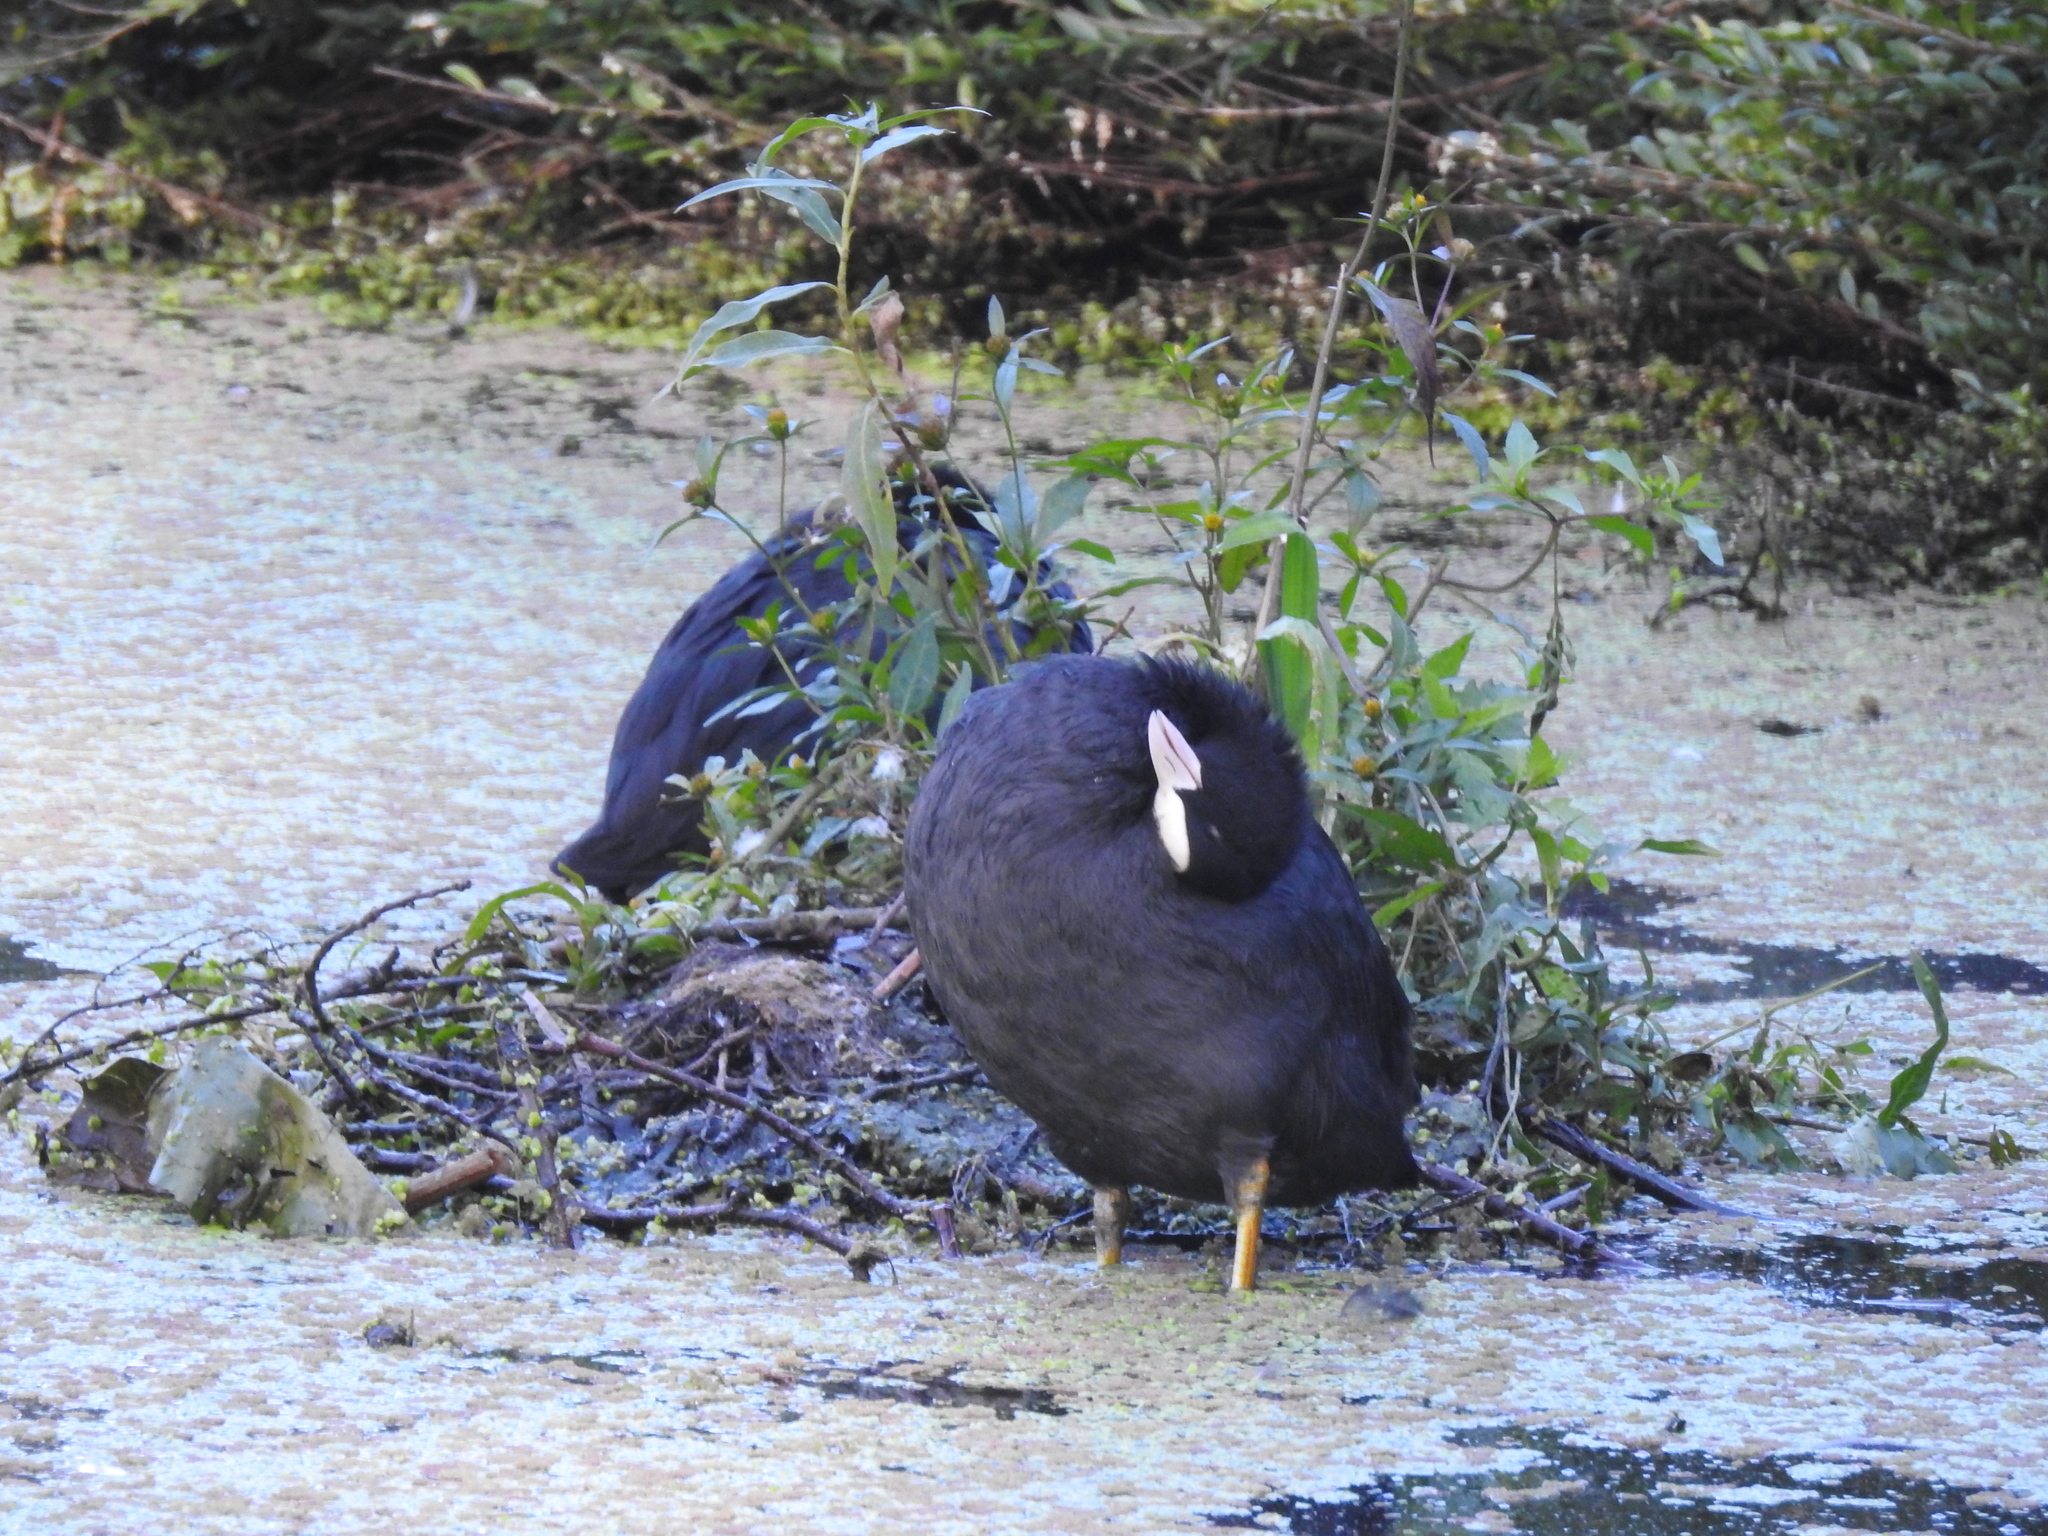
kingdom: Animalia
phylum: Chordata
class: Aves
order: Gruiformes
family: Rallidae
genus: Fulica
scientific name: Fulica atra
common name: Eurasian coot
